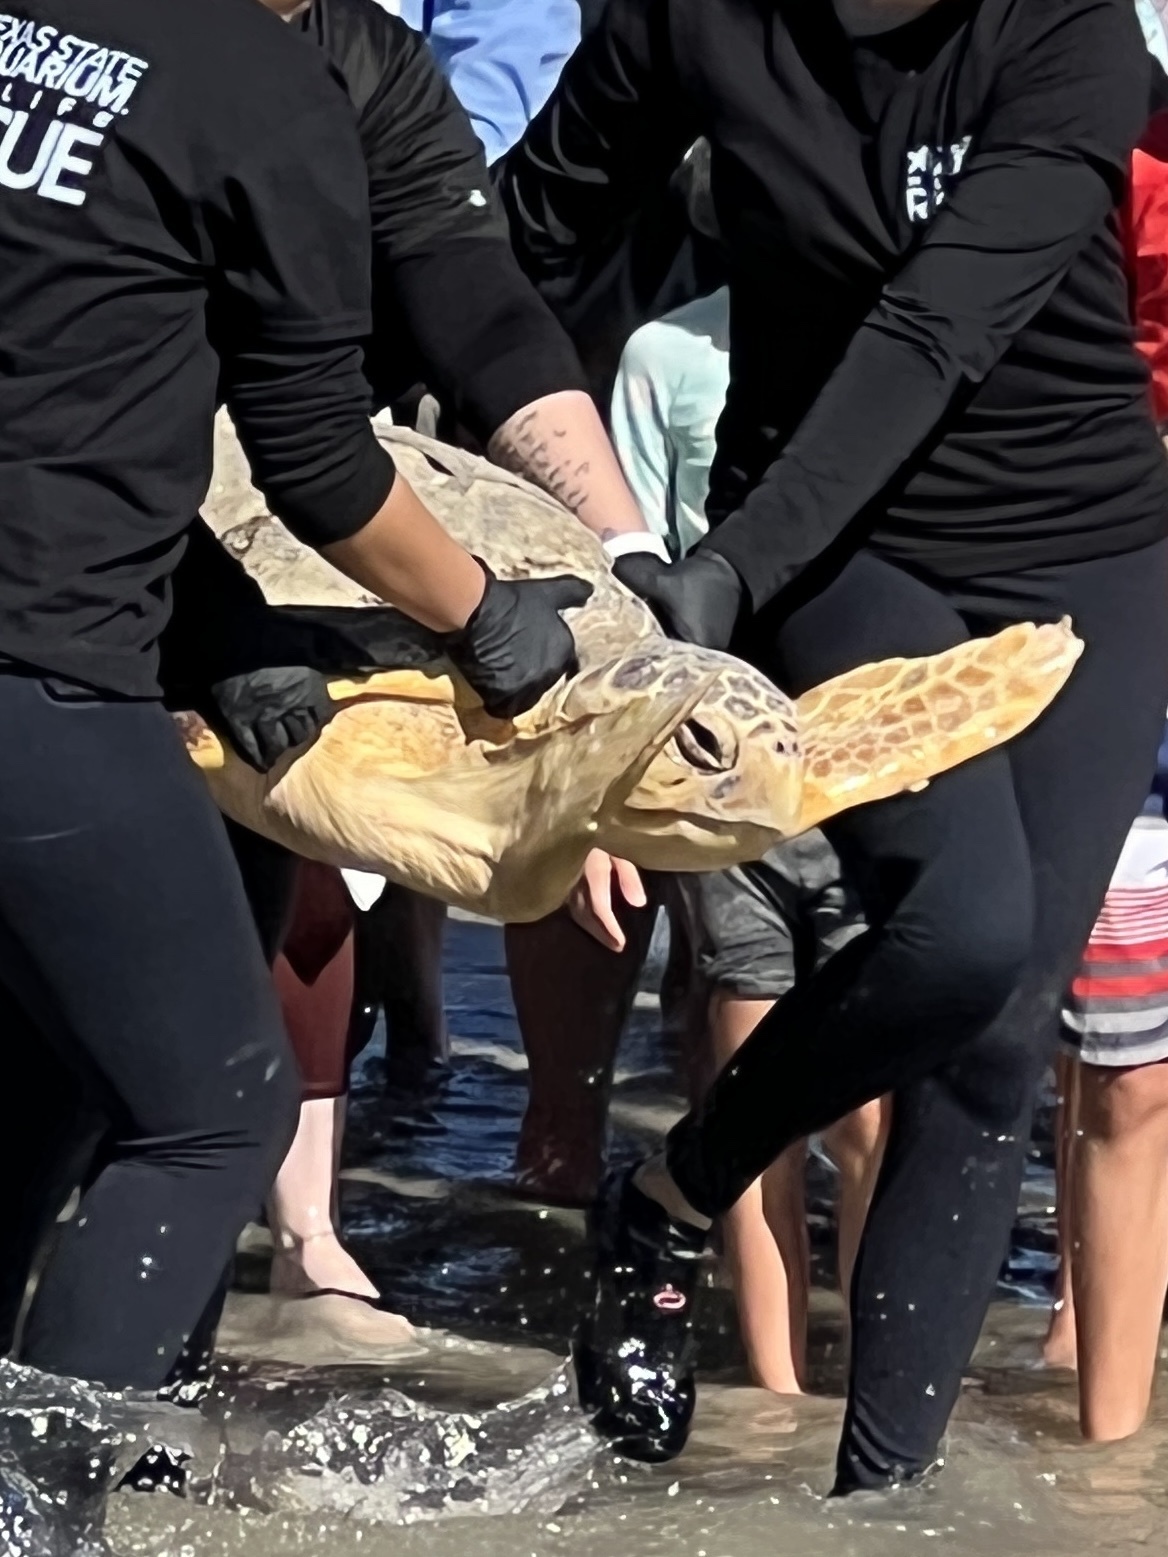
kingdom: Animalia
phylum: Chordata
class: Testudines
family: Cheloniidae
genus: Caretta
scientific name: Caretta caretta
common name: Loggerhead sea turtle
